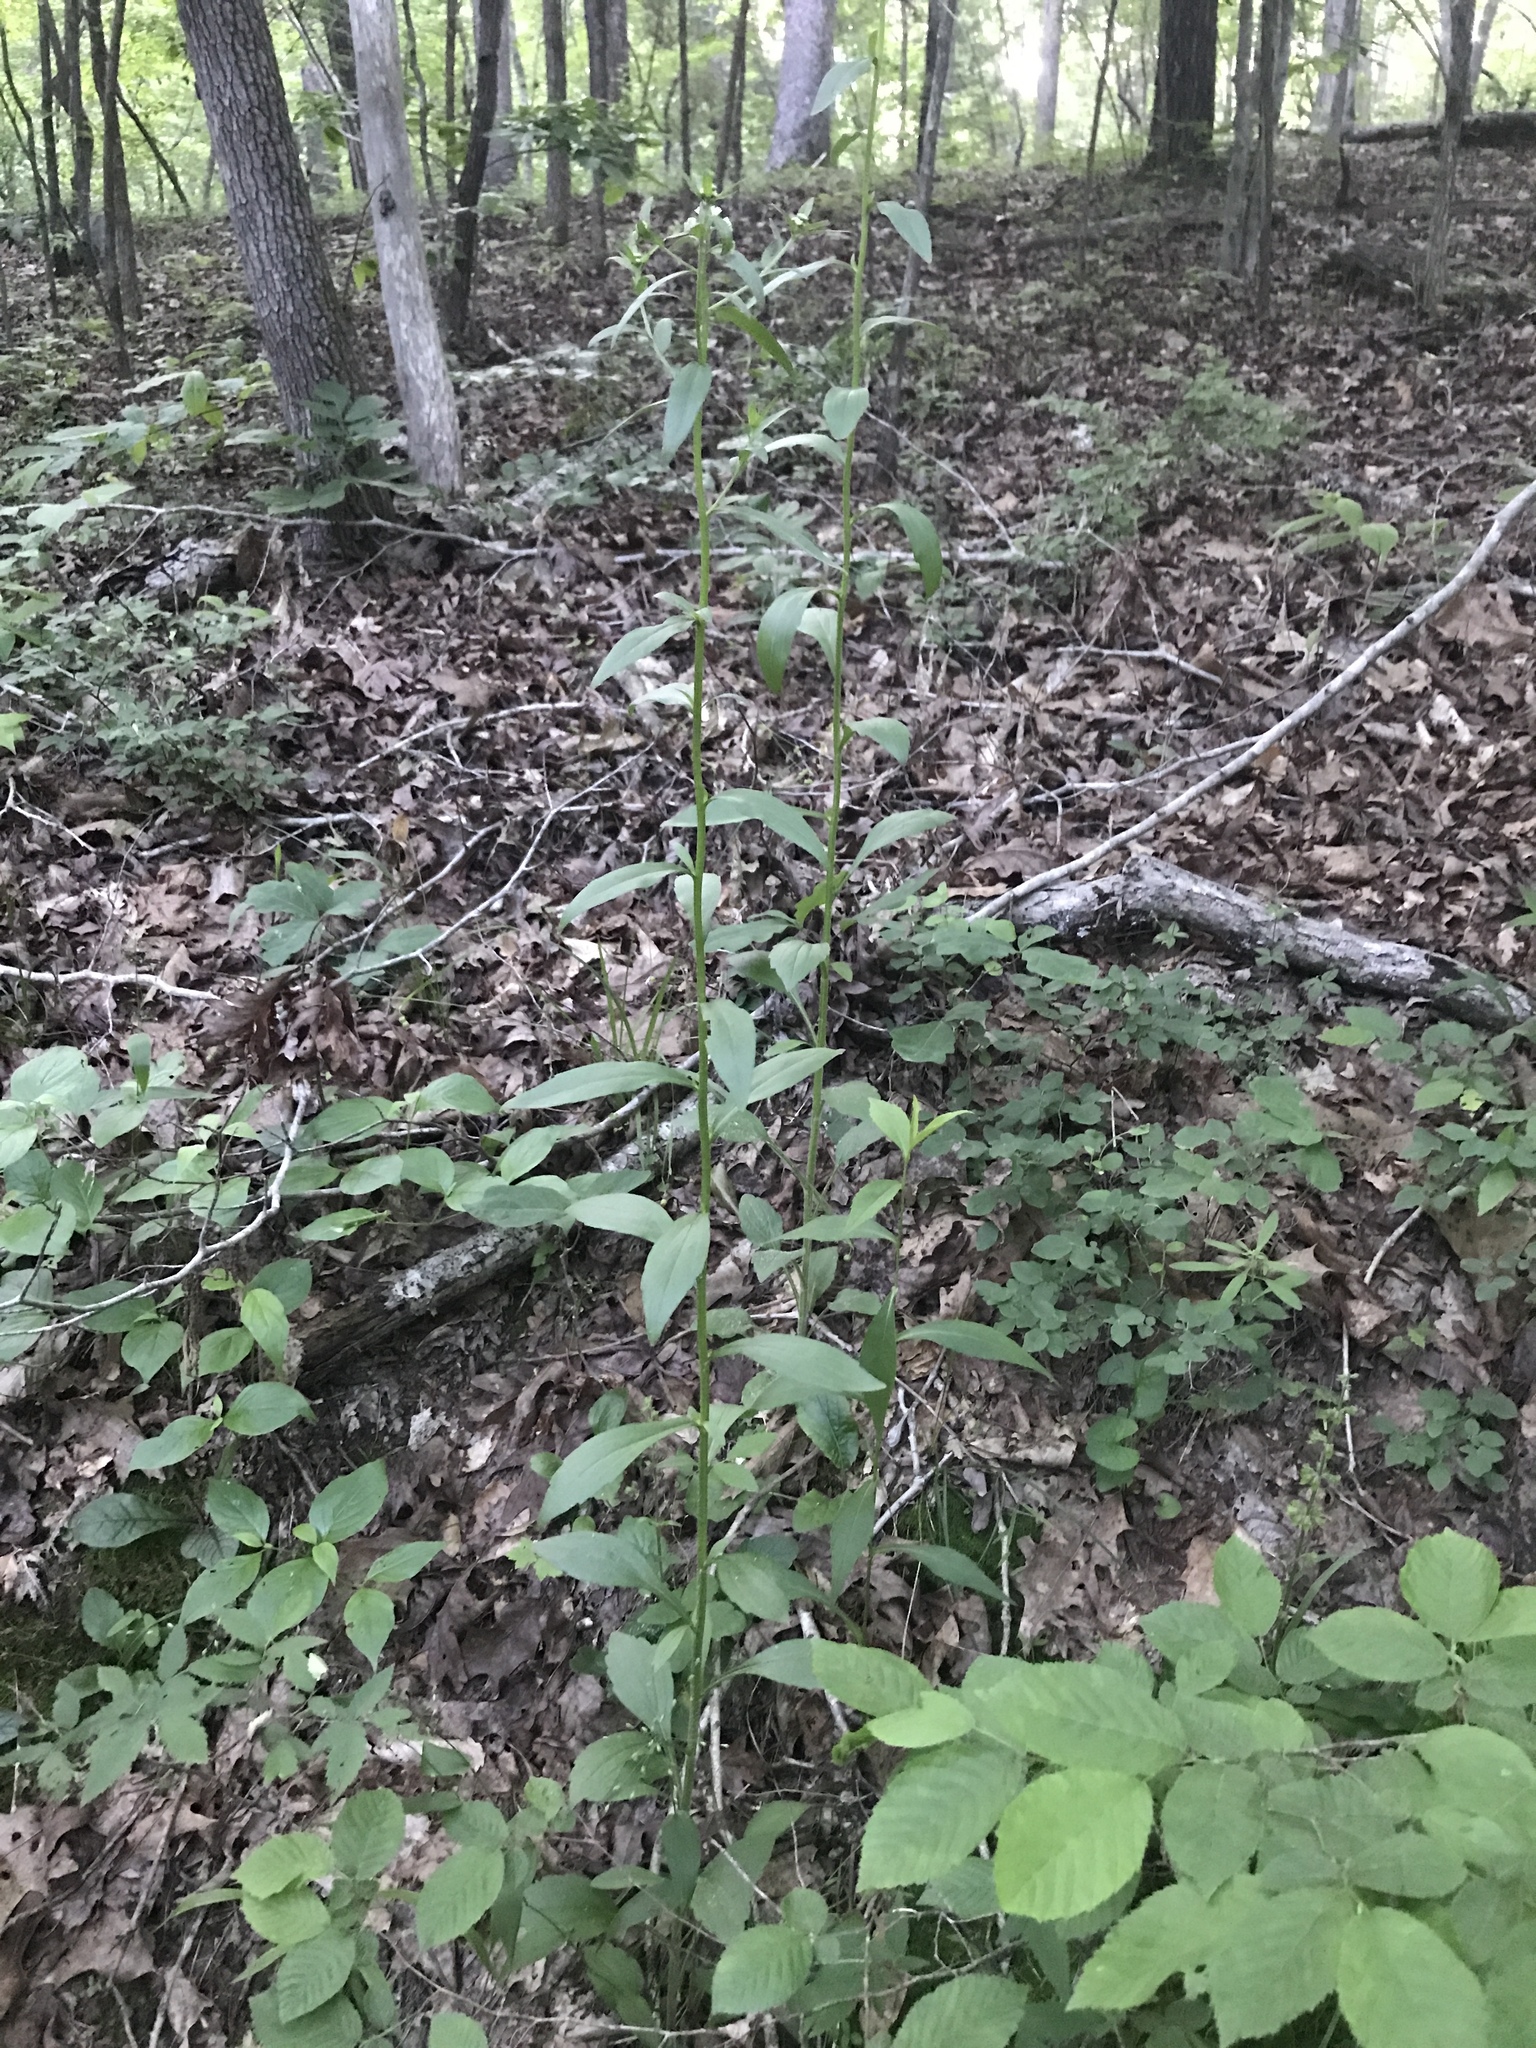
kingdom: Plantae
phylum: Tracheophyta
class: Magnoliopsida
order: Asterales
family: Asteraceae
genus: Erigeron
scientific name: Erigeron annuus
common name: Tall fleabane
